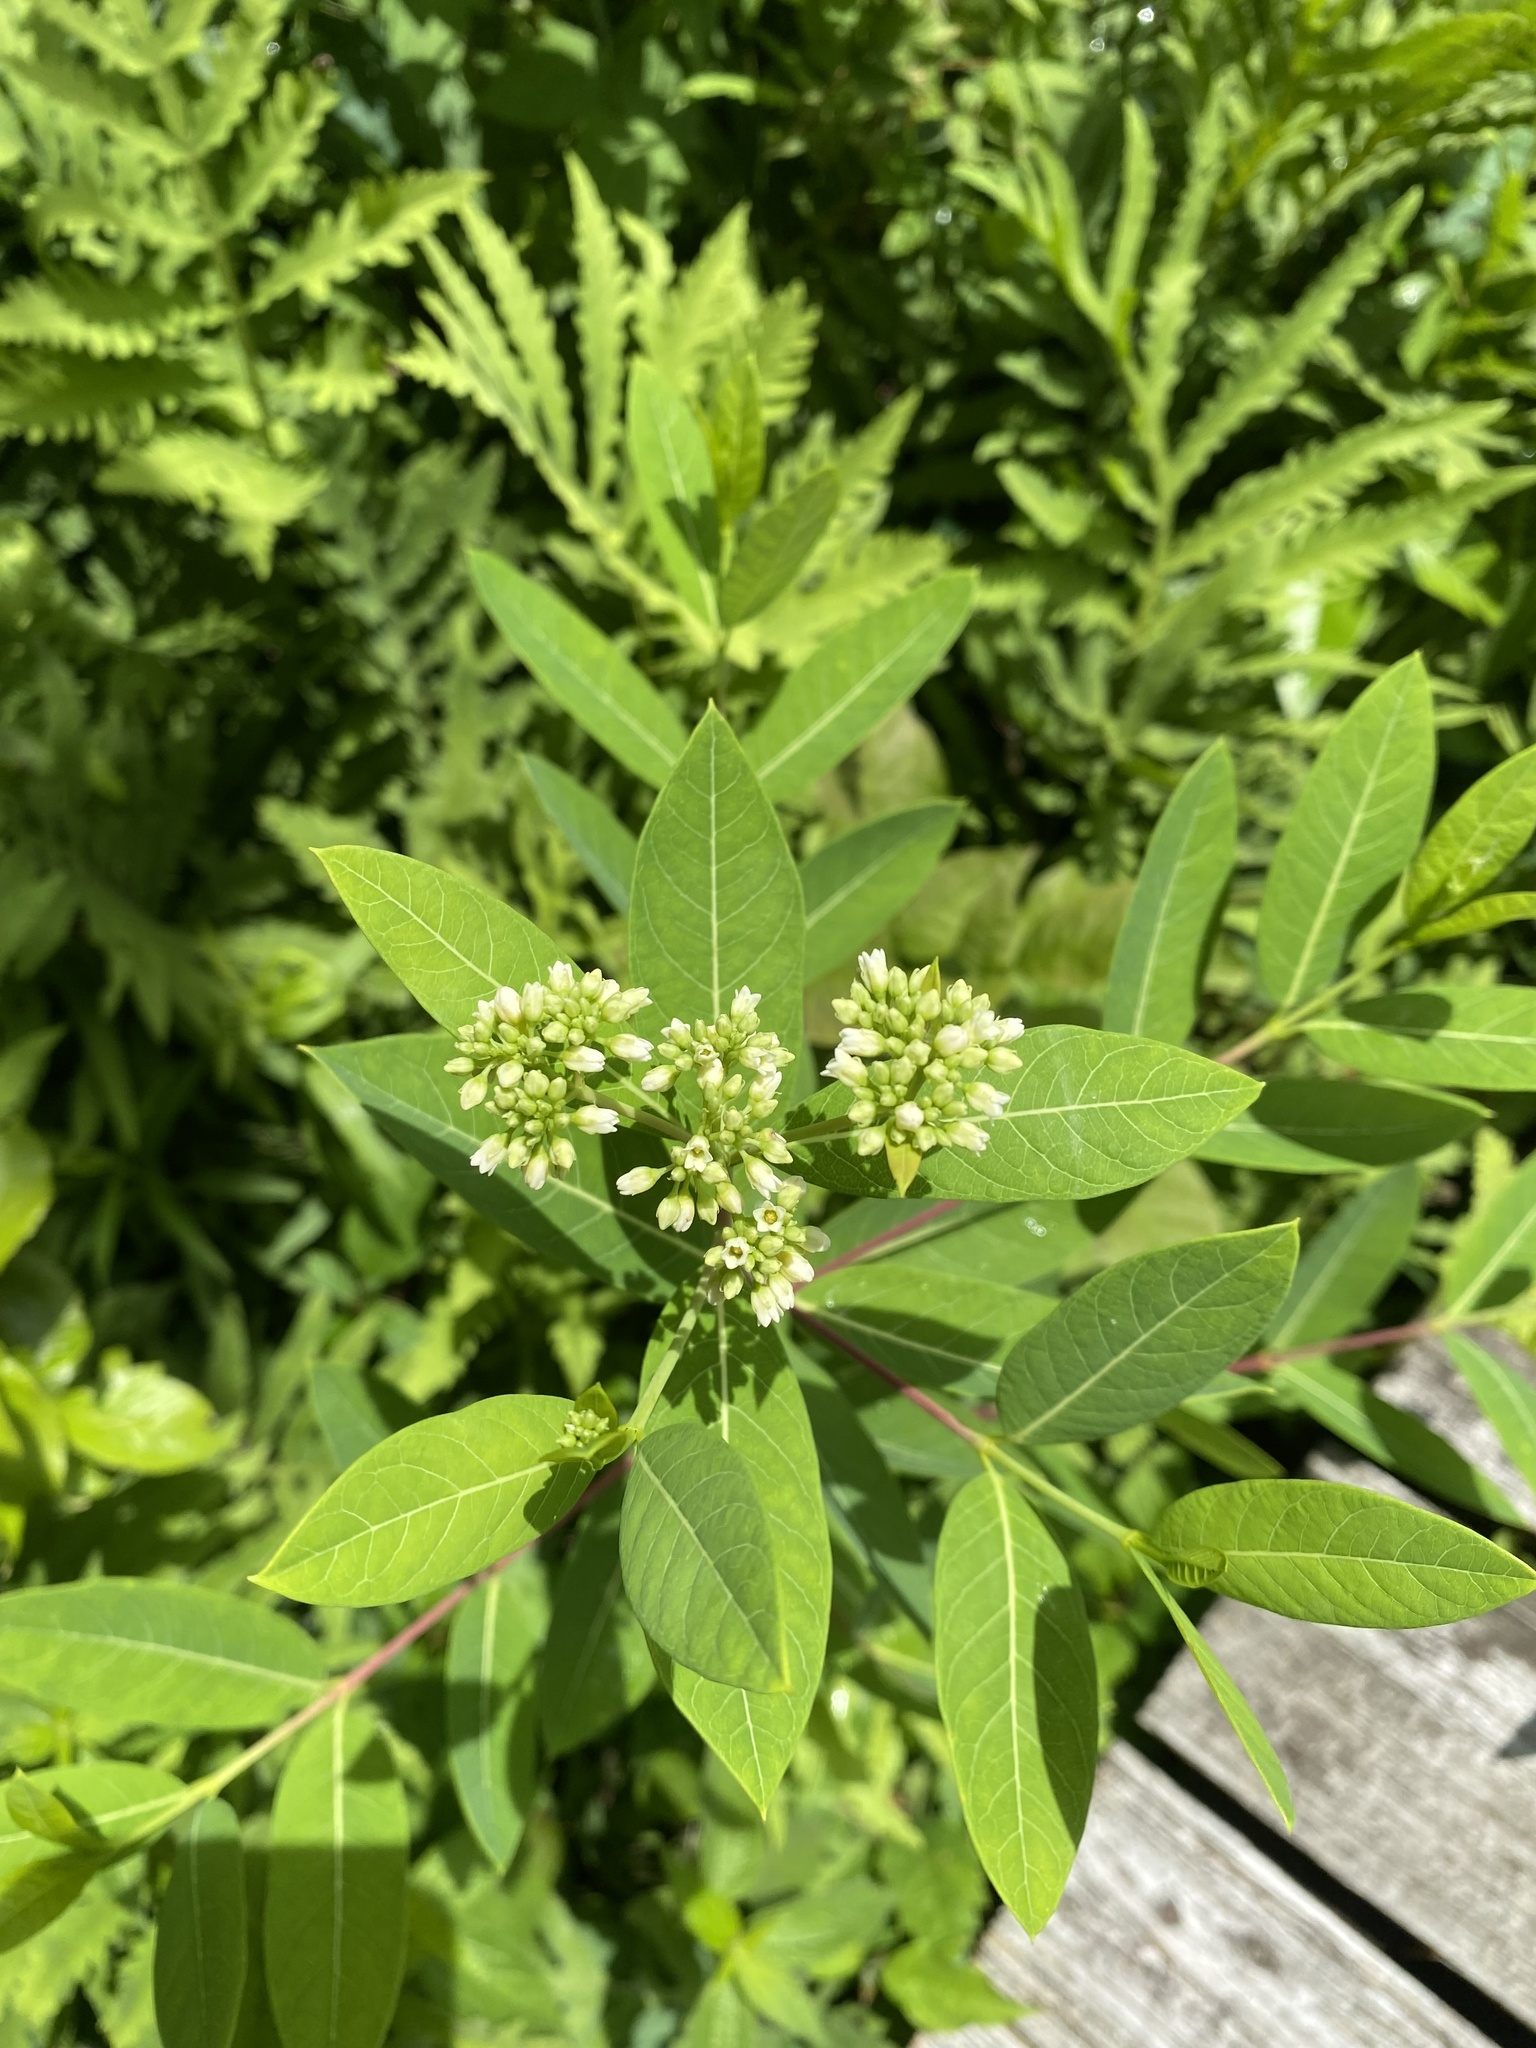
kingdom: Plantae
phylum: Tracheophyta
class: Magnoliopsida
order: Gentianales
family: Apocynaceae
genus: Apocynum
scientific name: Apocynum cannabinum
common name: Hemp dogbane
